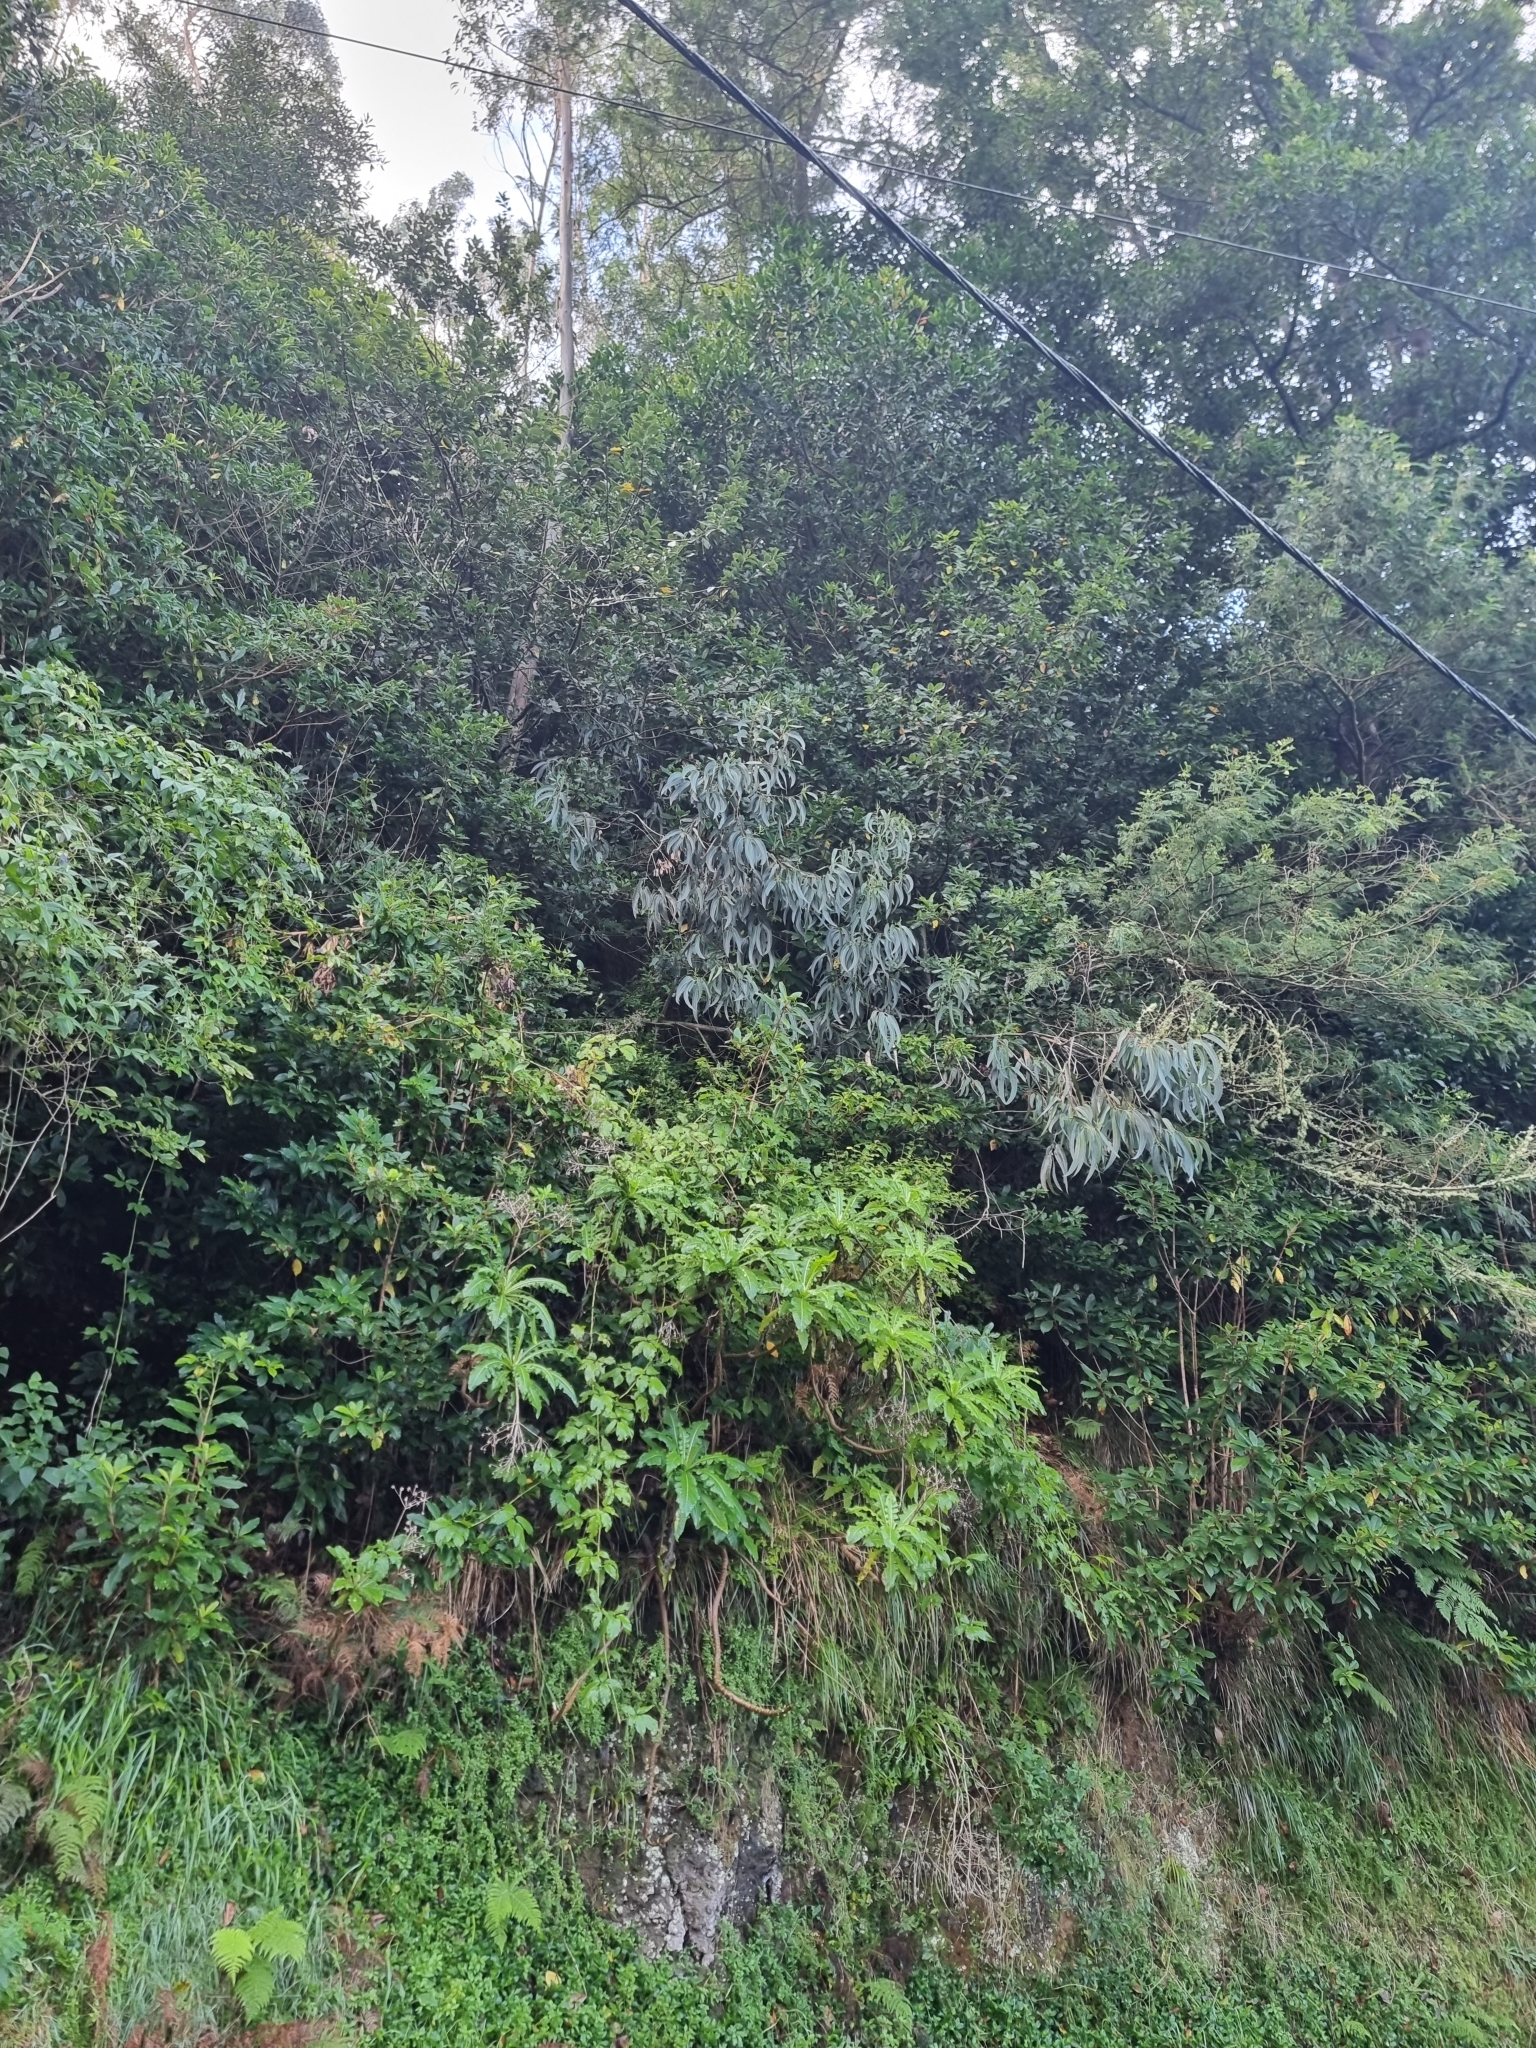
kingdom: Plantae
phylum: Tracheophyta
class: Magnoliopsida
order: Myrtales
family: Myrtaceae
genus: Eucalyptus
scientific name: Eucalyptus globulus
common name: Southern blue-gum
